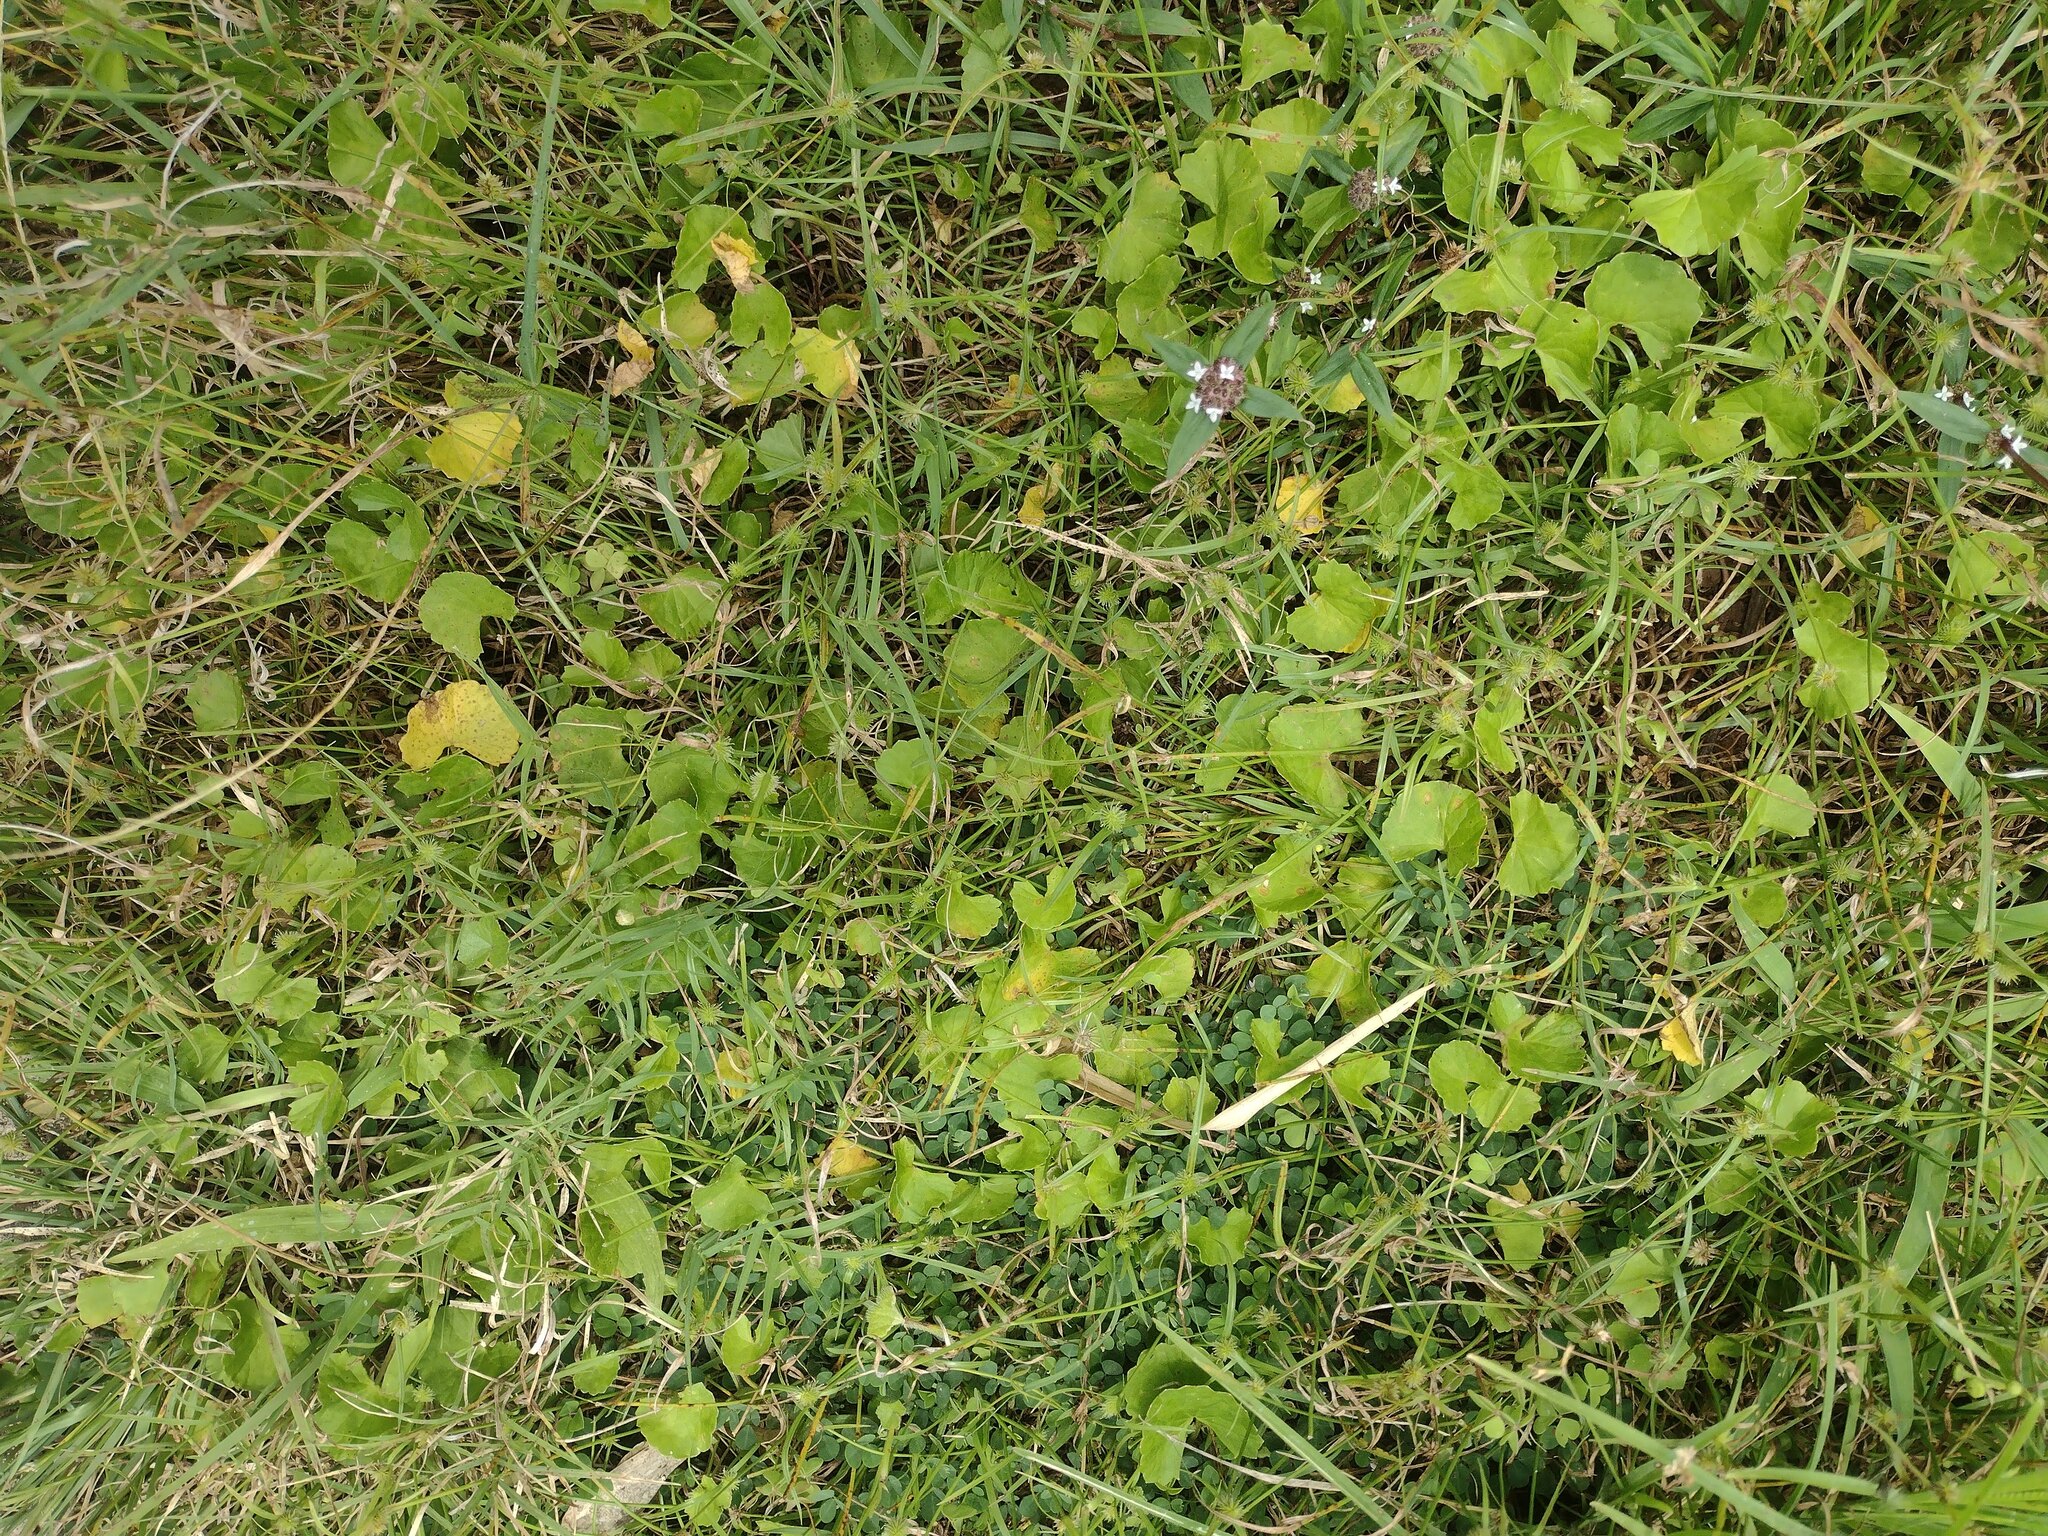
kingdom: Plantae
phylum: Tracheophyta
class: Magnoliopsida
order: Apiales
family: Apiaceae
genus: Centella
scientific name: Centella asiatica
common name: Spadeleaf
